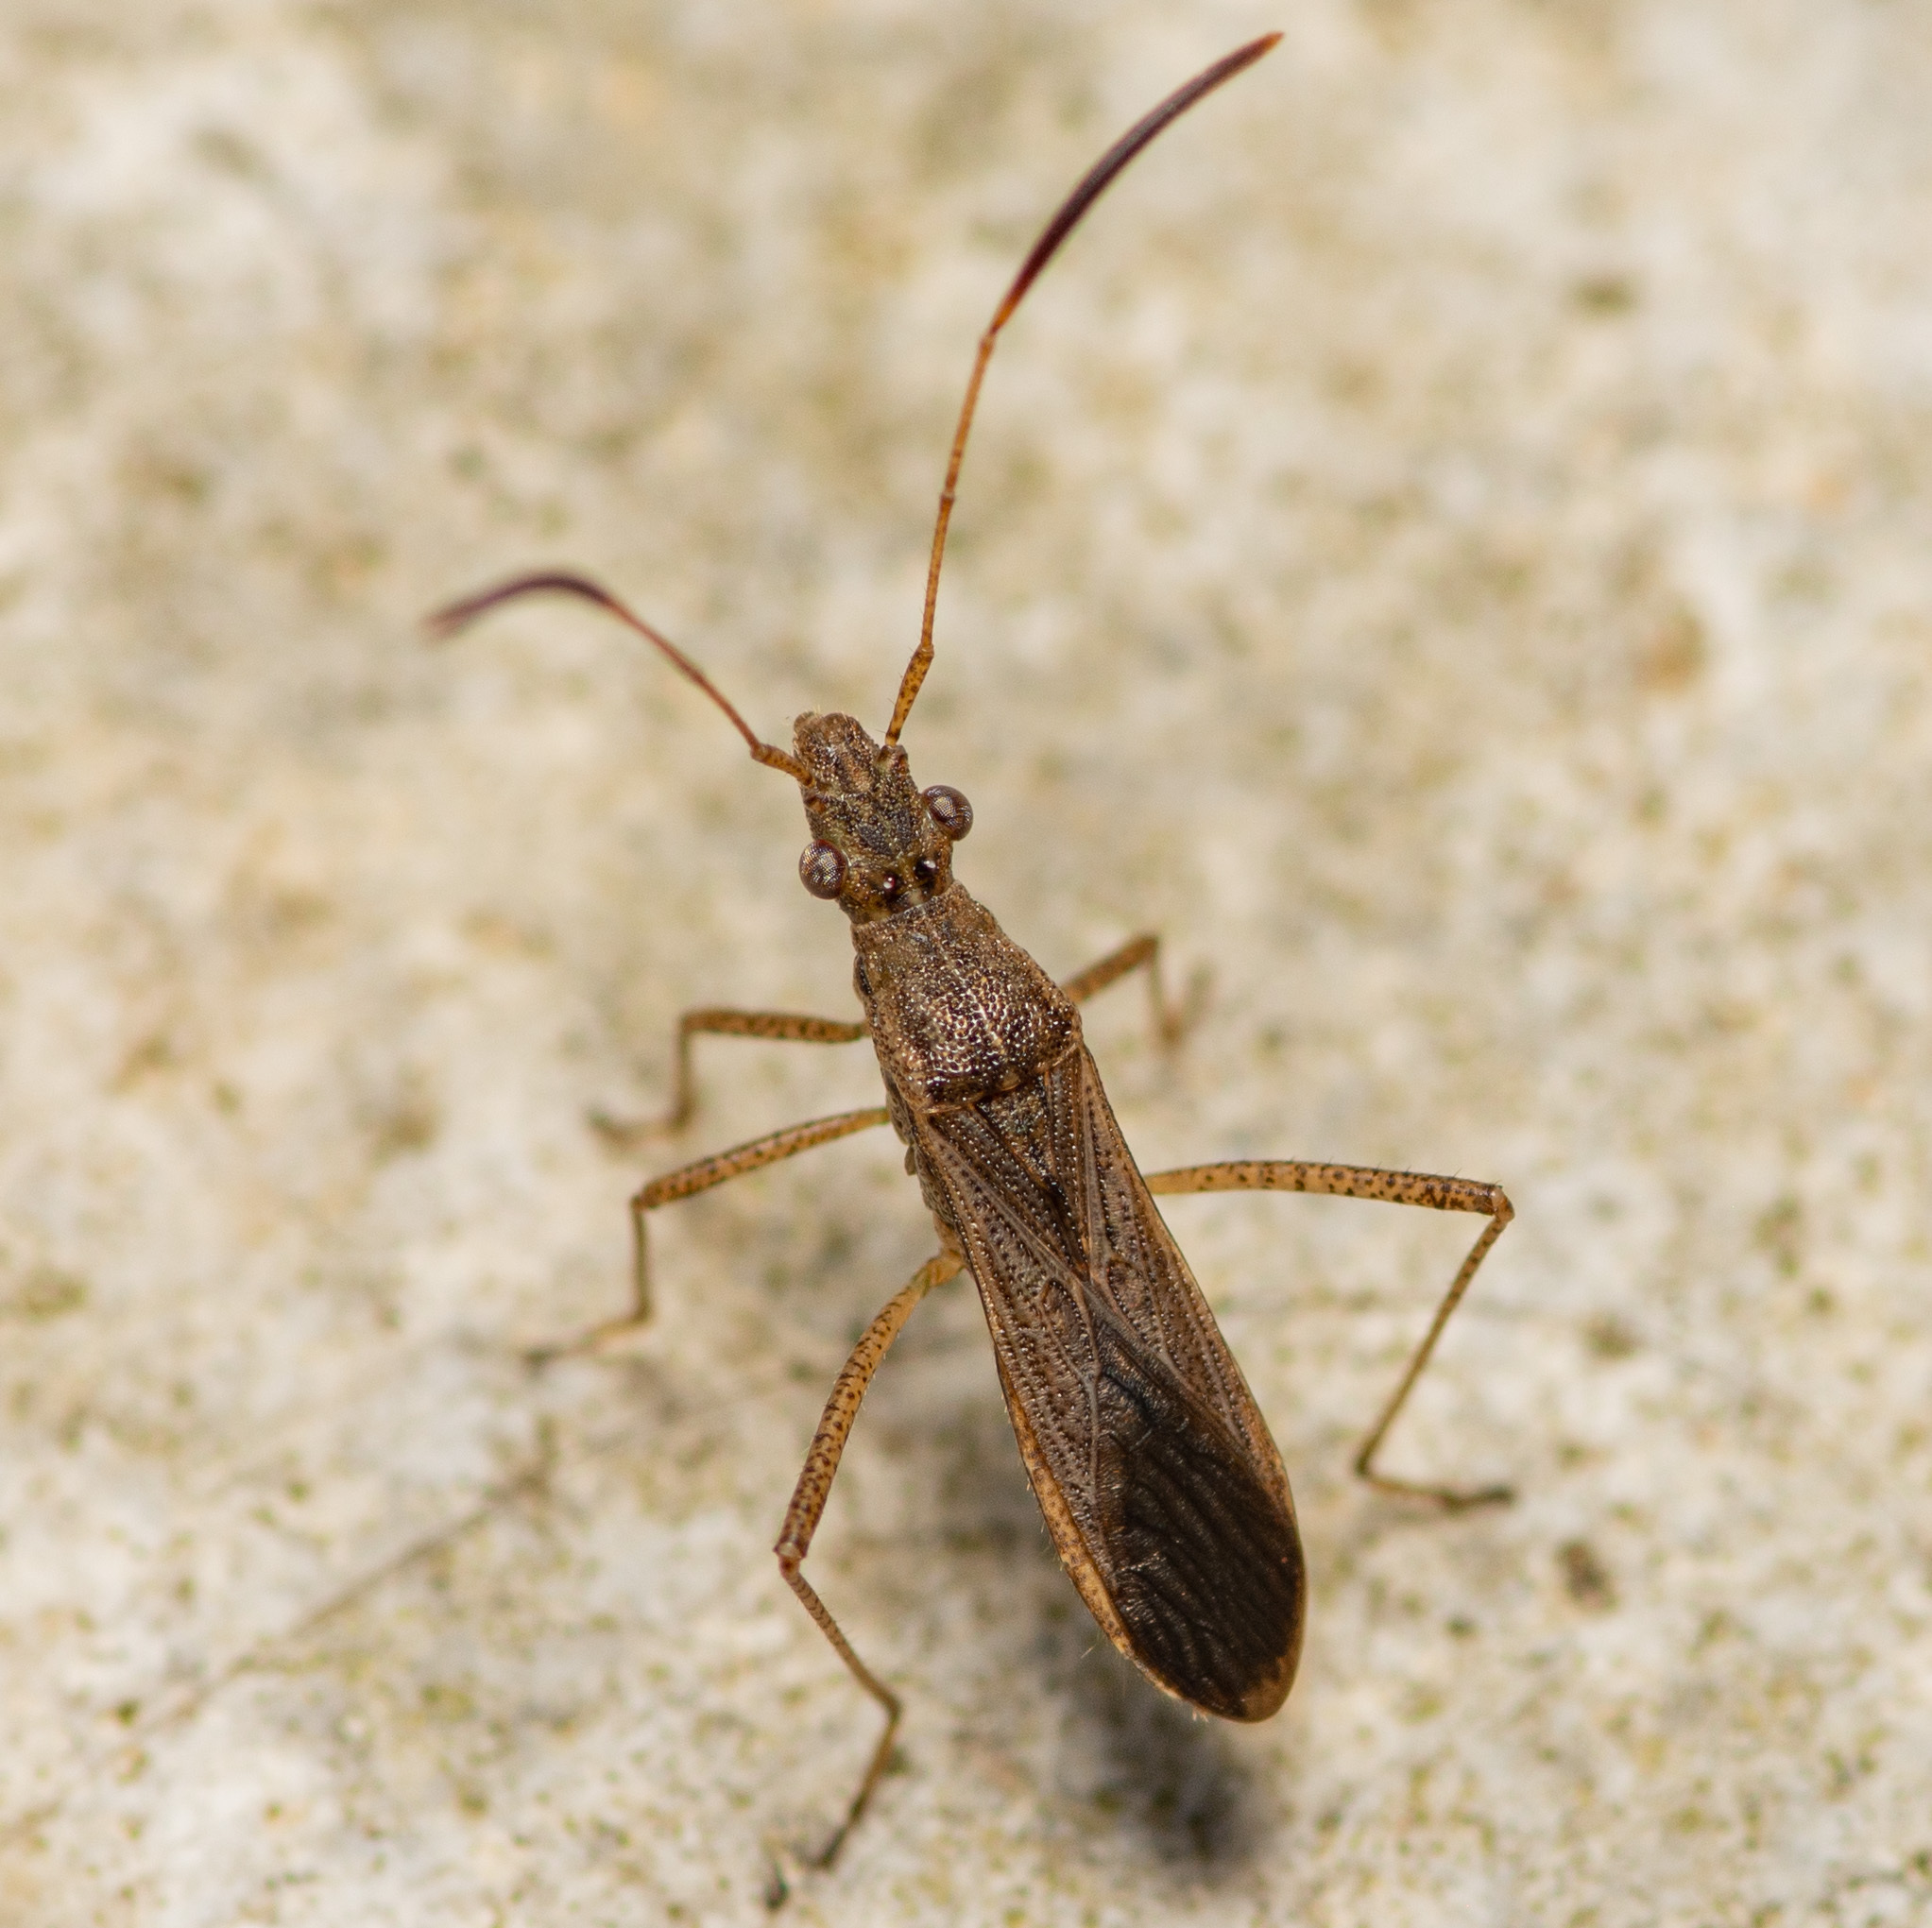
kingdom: Animalia
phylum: Arthropoda
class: Insecta
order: Hemiptera
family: Alydidae
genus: Esperanza
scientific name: Esperanza texana
